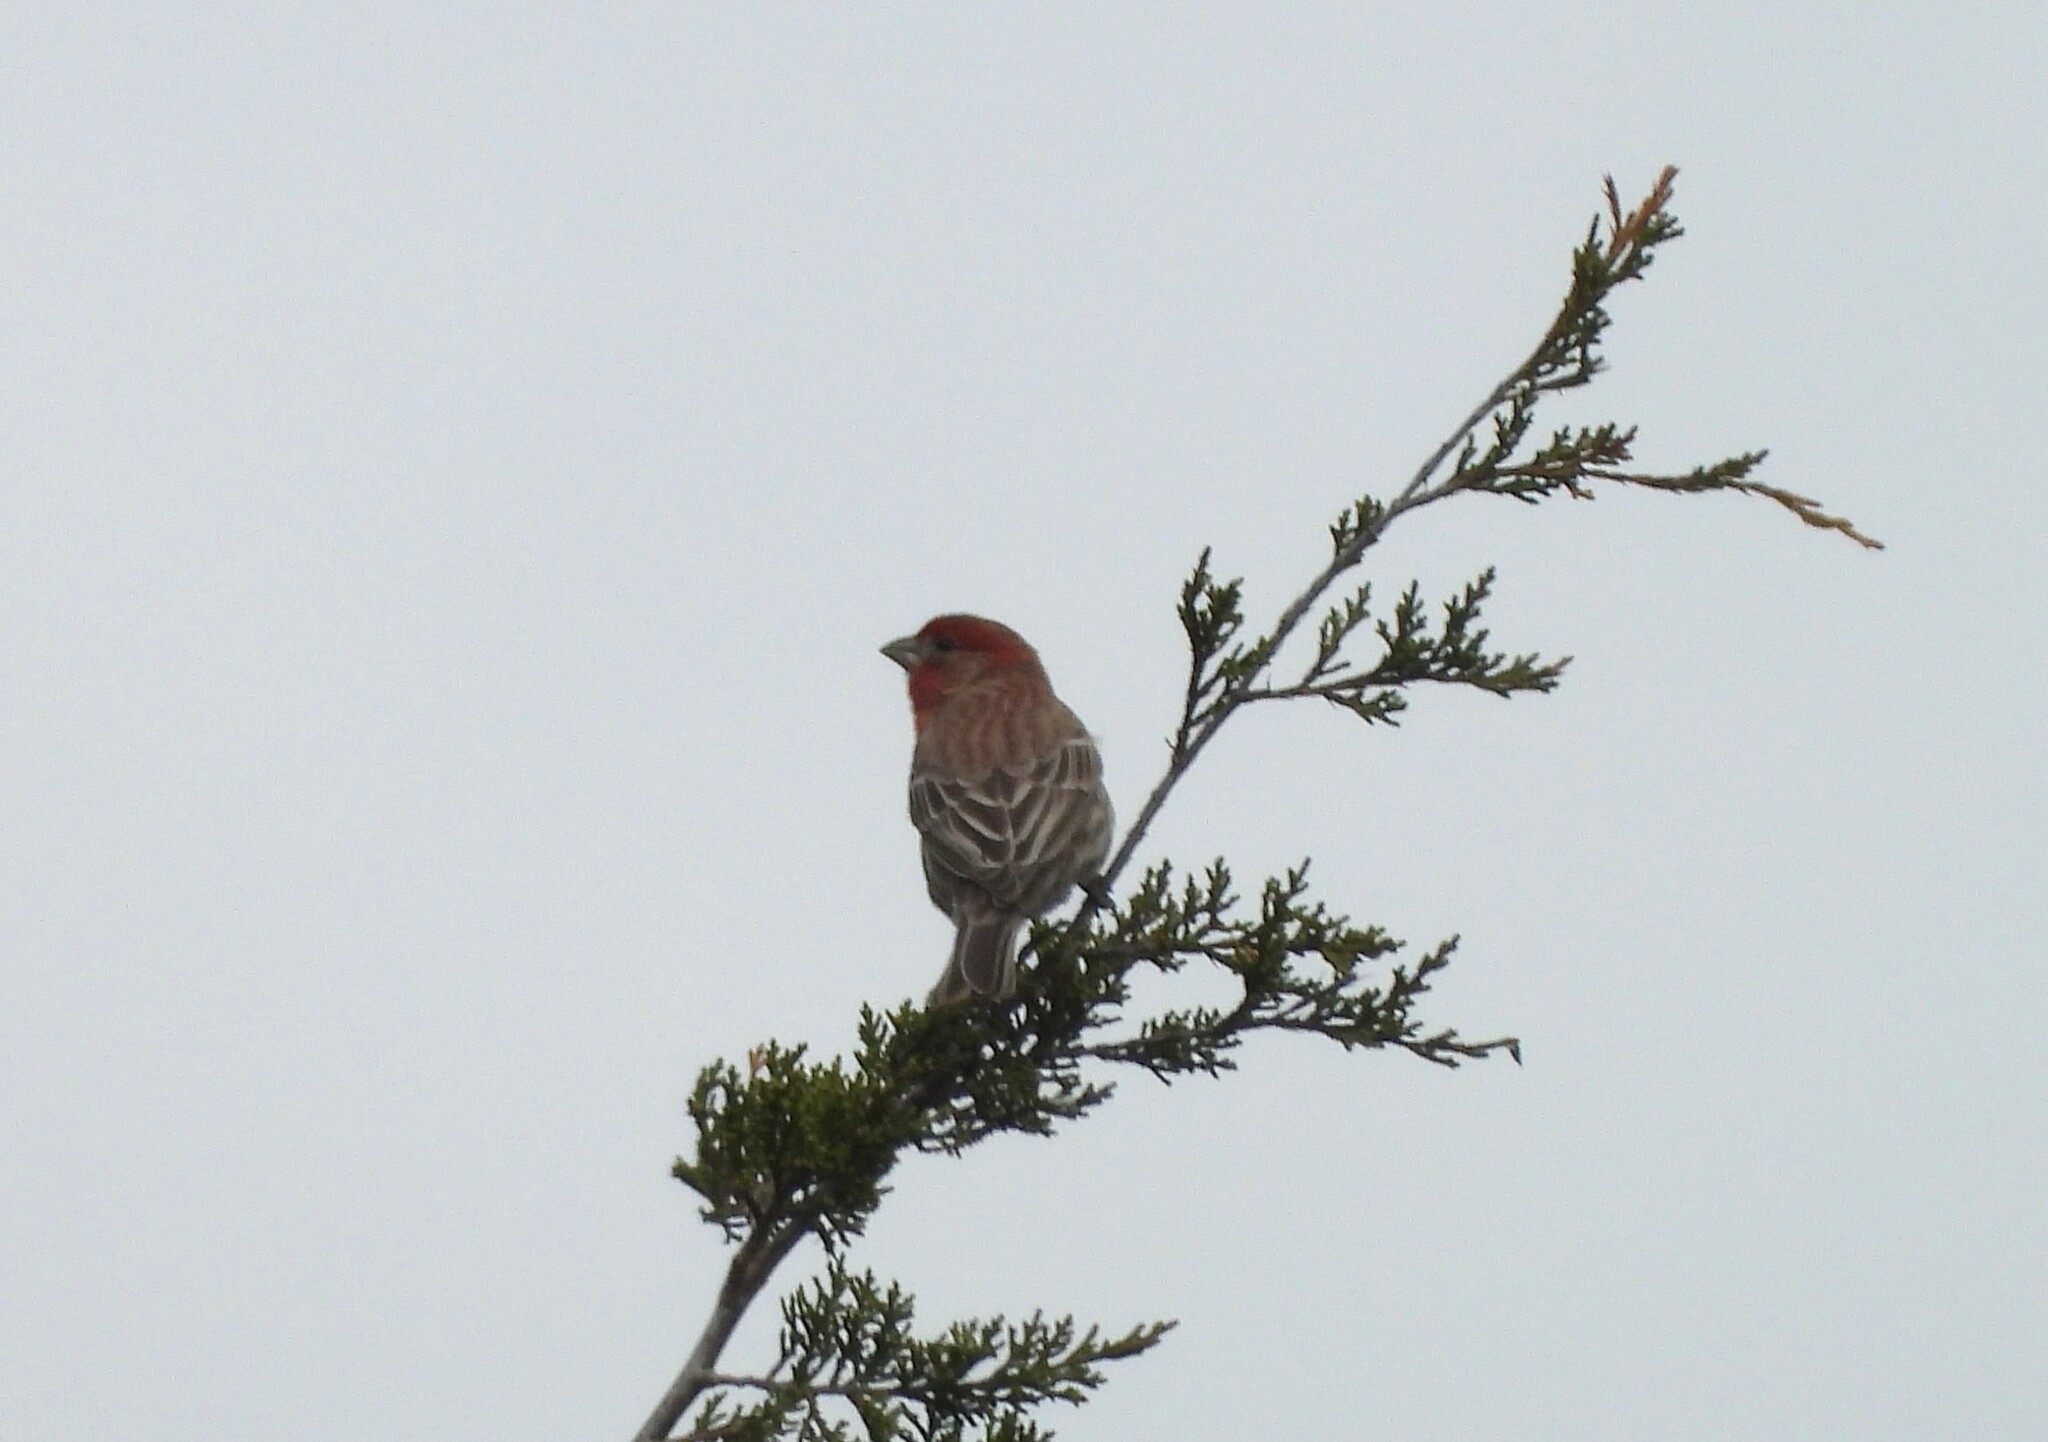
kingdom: Animalia
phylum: Chordata
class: Aves
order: Passeriformes
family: Fringillidae
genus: Haemorhous
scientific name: Haemorhous mexicanus
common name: House finch
